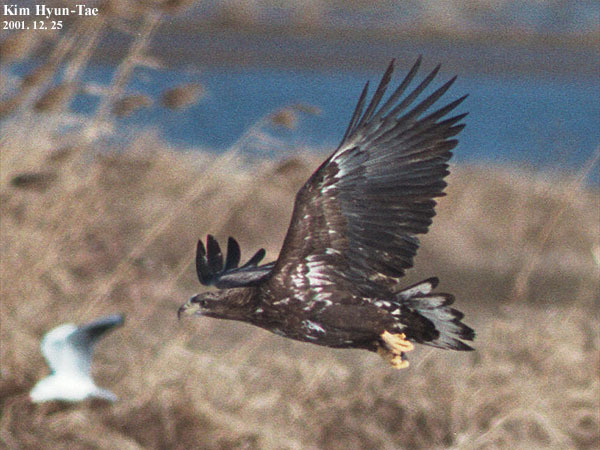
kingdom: Animalia
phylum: Chordata
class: Aves
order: Accipitriformes
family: Accipitridae
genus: Haliaeetus
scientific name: Haliaeetus albicilla
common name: White-tailed eagle
